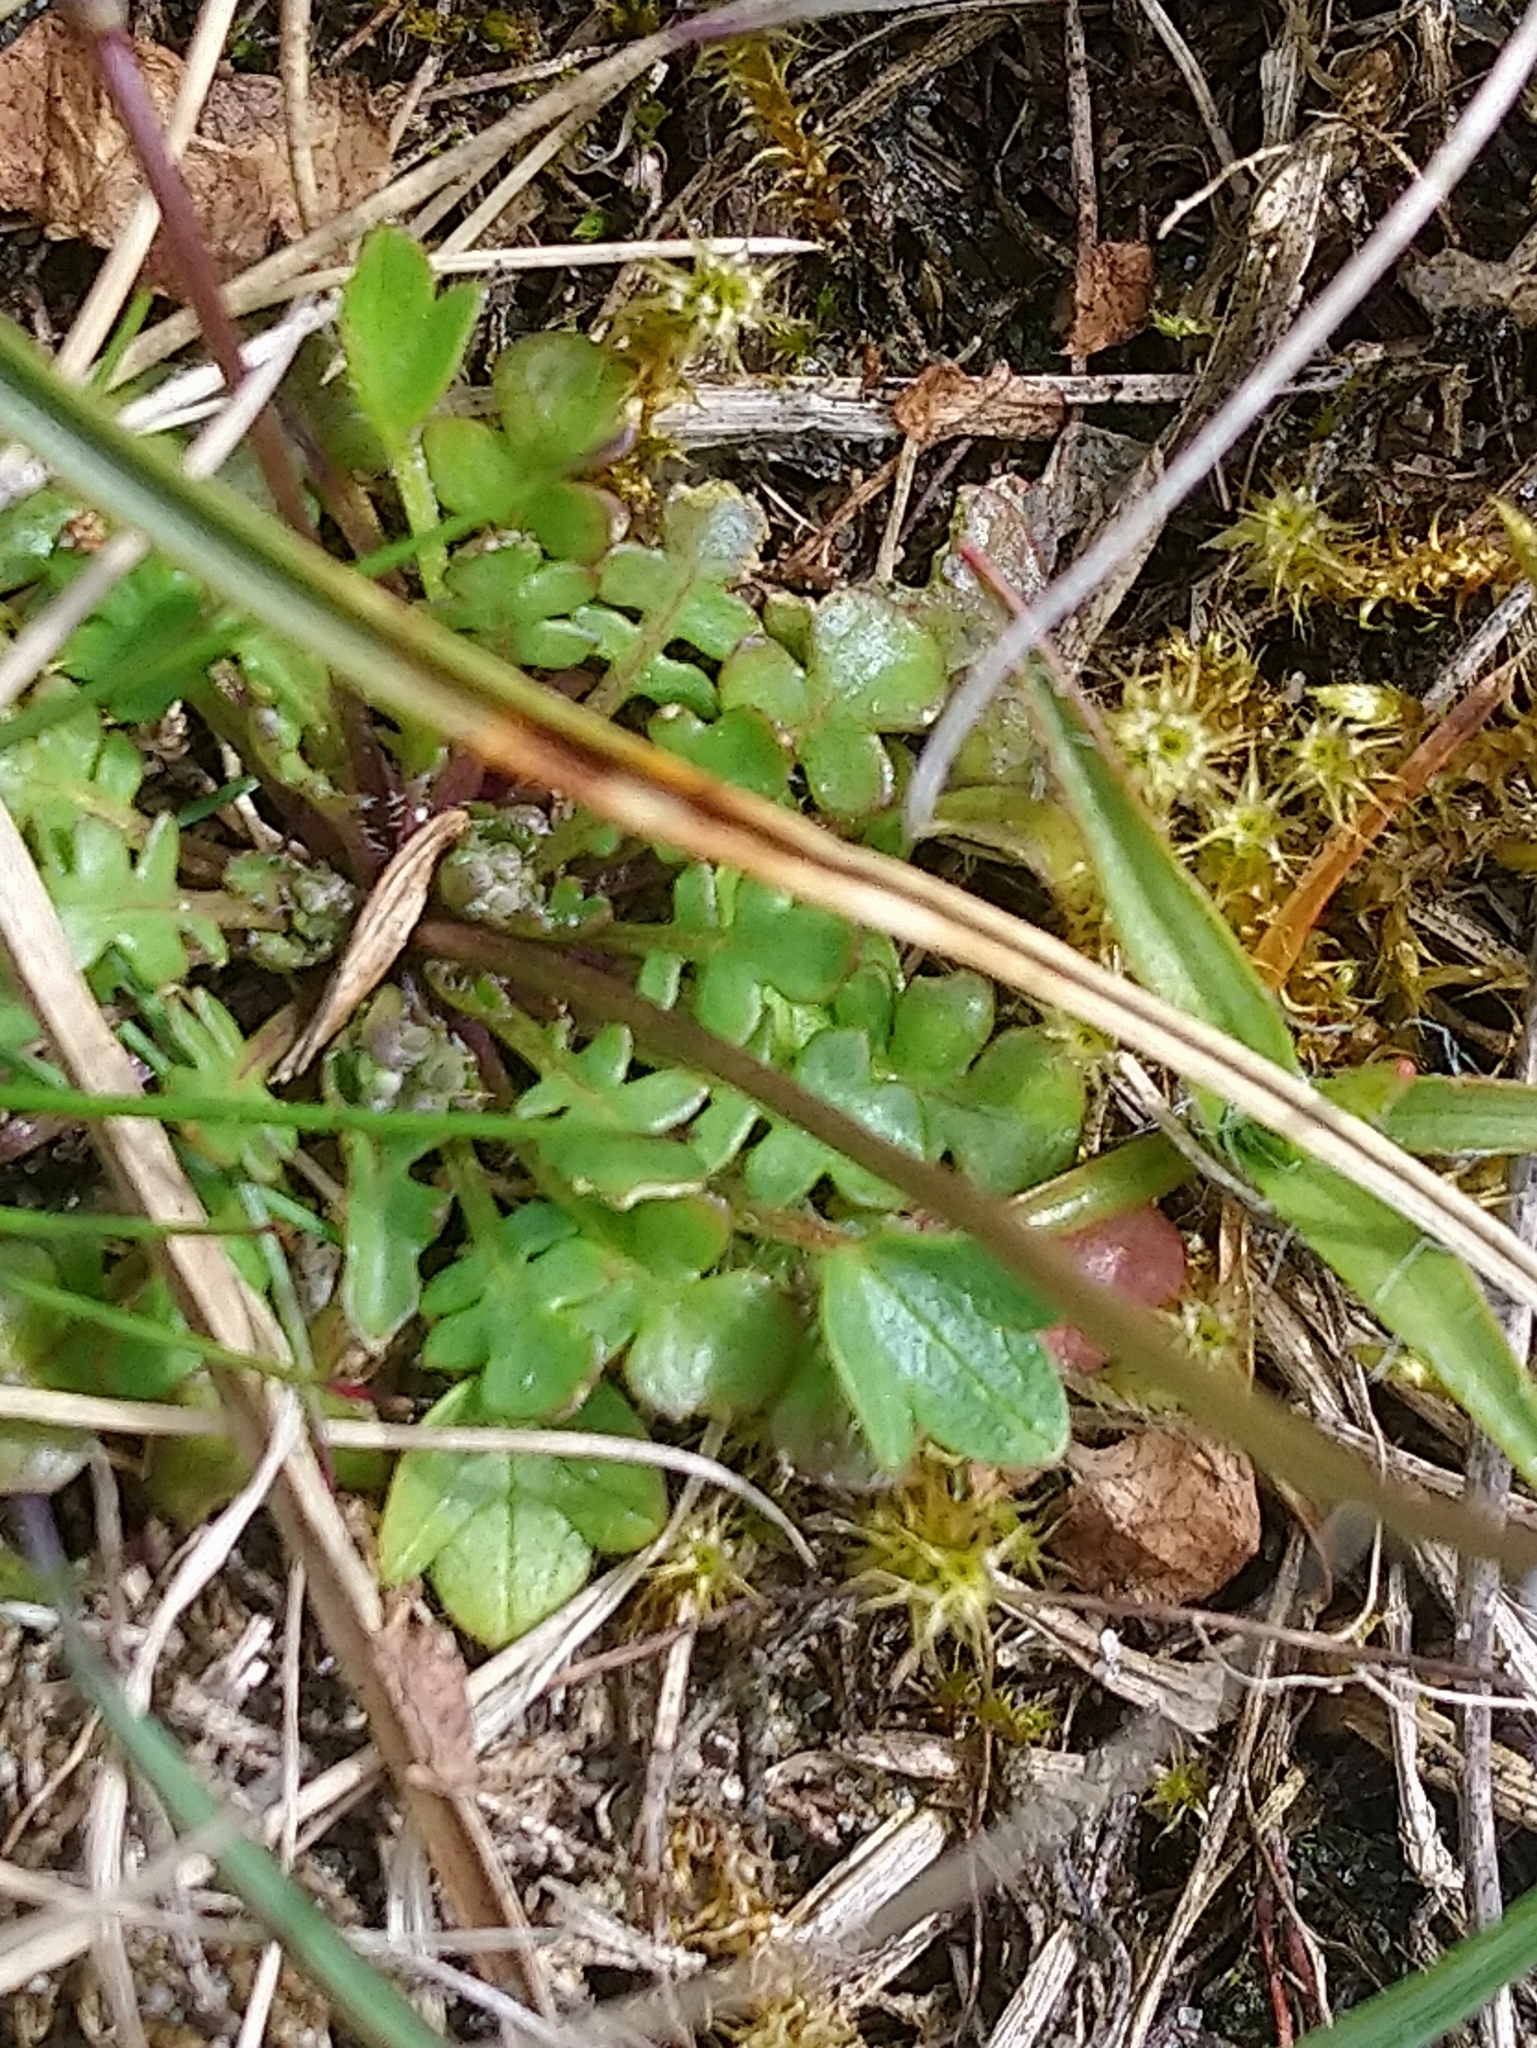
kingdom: Plantae
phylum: Tracheophyta
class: Magnoliopsida
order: Brassicales
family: Brassicaceae
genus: Teesdalia
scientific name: Teesdalia nudicaulis
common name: Shepherd's cress
